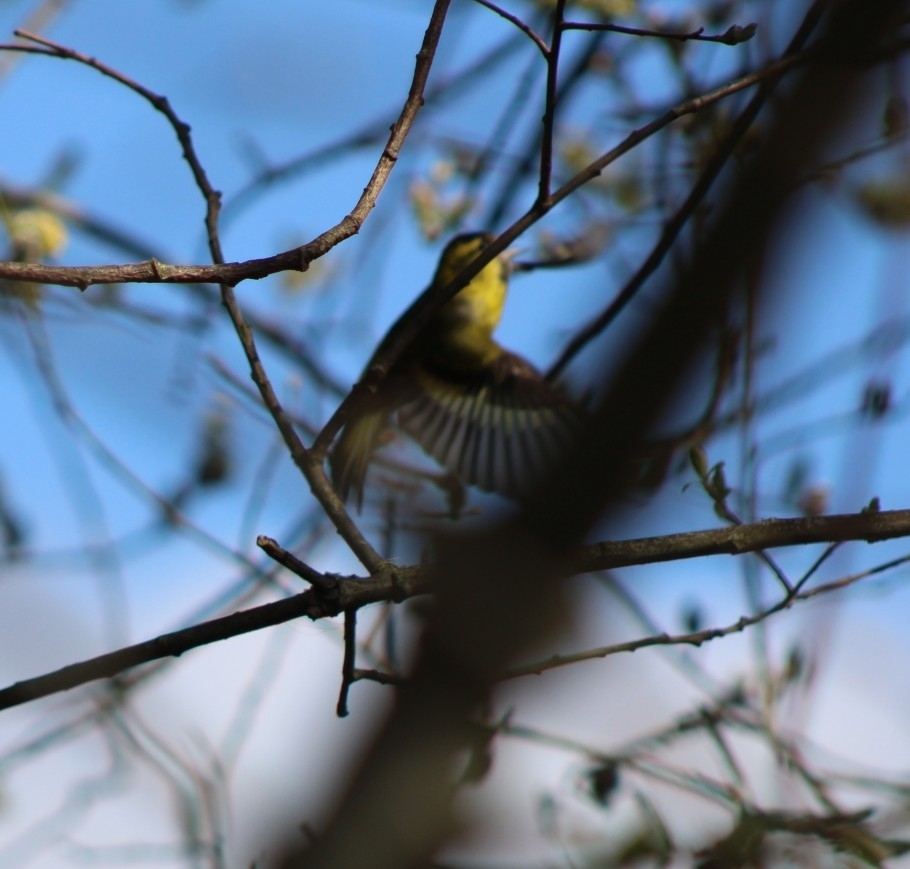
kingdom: Animalia
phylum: Chordata
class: Aves
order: Passeriformes
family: Fringillidae
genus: Spinus
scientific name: Spinus spinus
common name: Eurasian siskin
